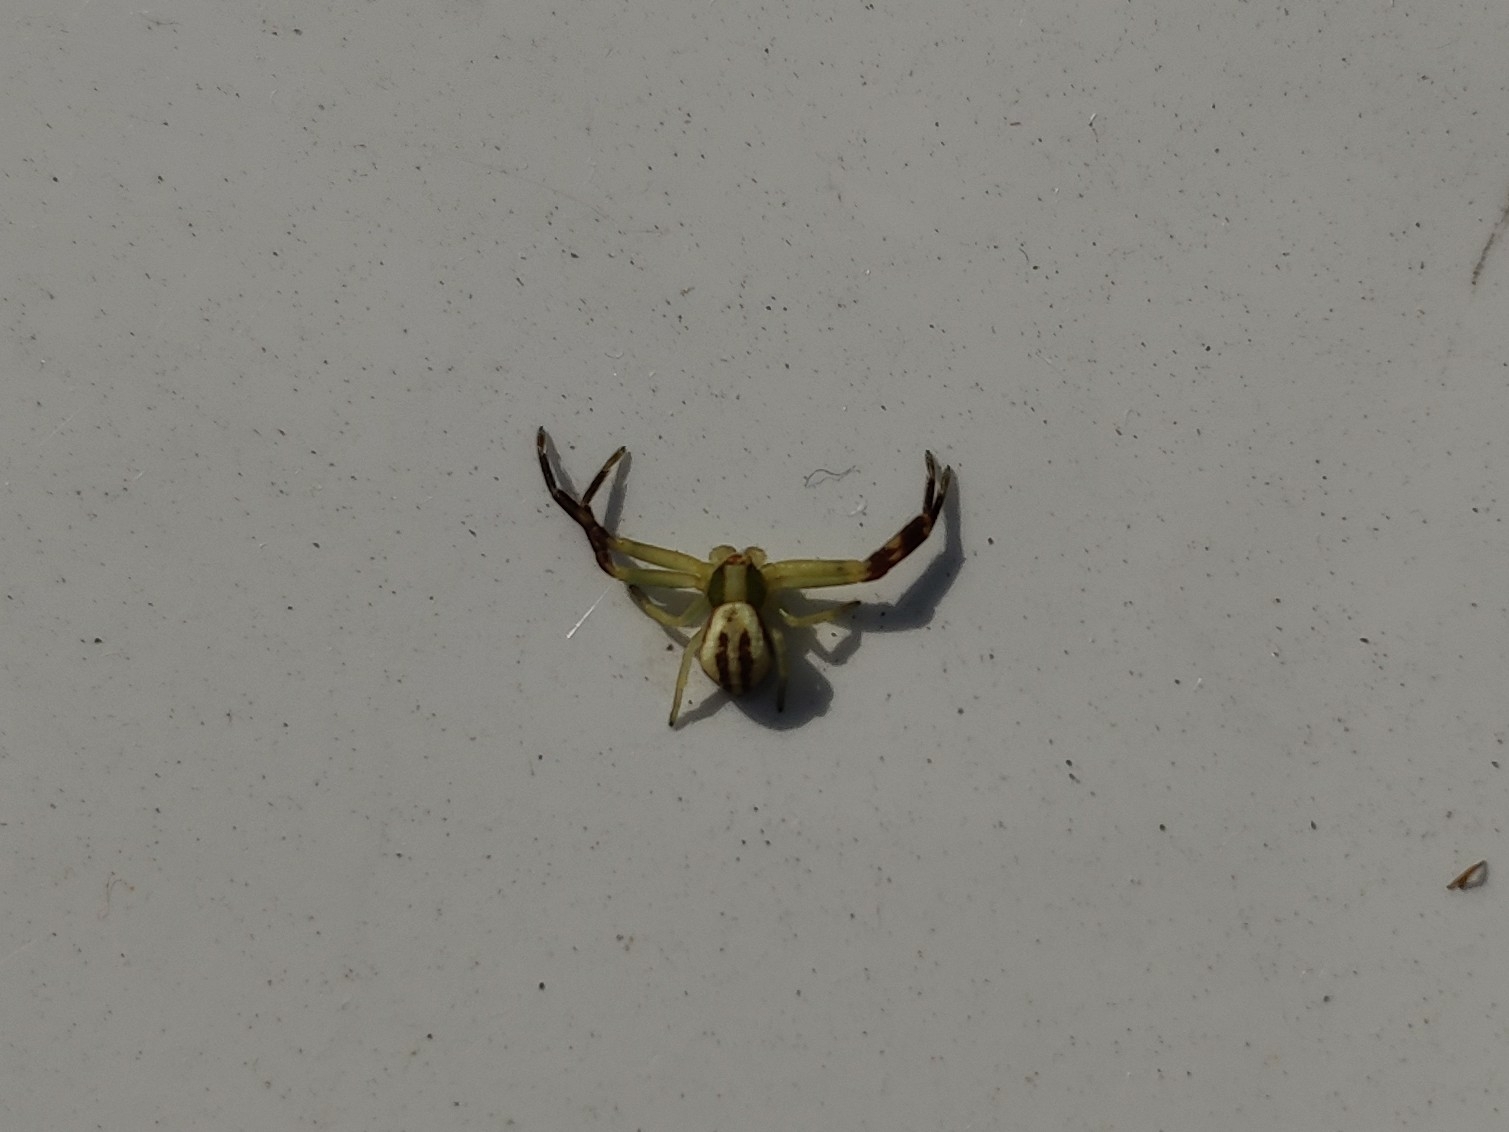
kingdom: Animalia
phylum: Arthropoda
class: Arachnida
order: Araneae
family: Thomisidae
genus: Misumena
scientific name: Misumena vatia
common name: Goldenrod crab spider
